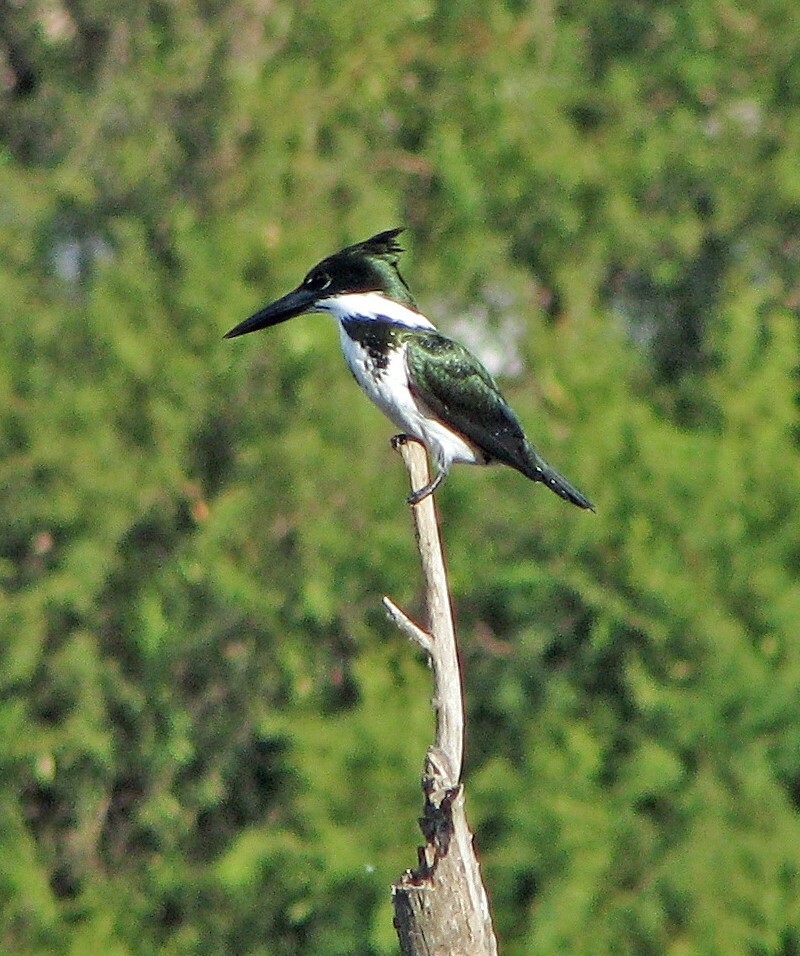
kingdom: Animalia
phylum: Chordata
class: Aves
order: Coraciiformes
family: Alcedinidae
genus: Chloroceryle
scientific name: Chloroceryle amazona
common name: Amazon kingfisher
